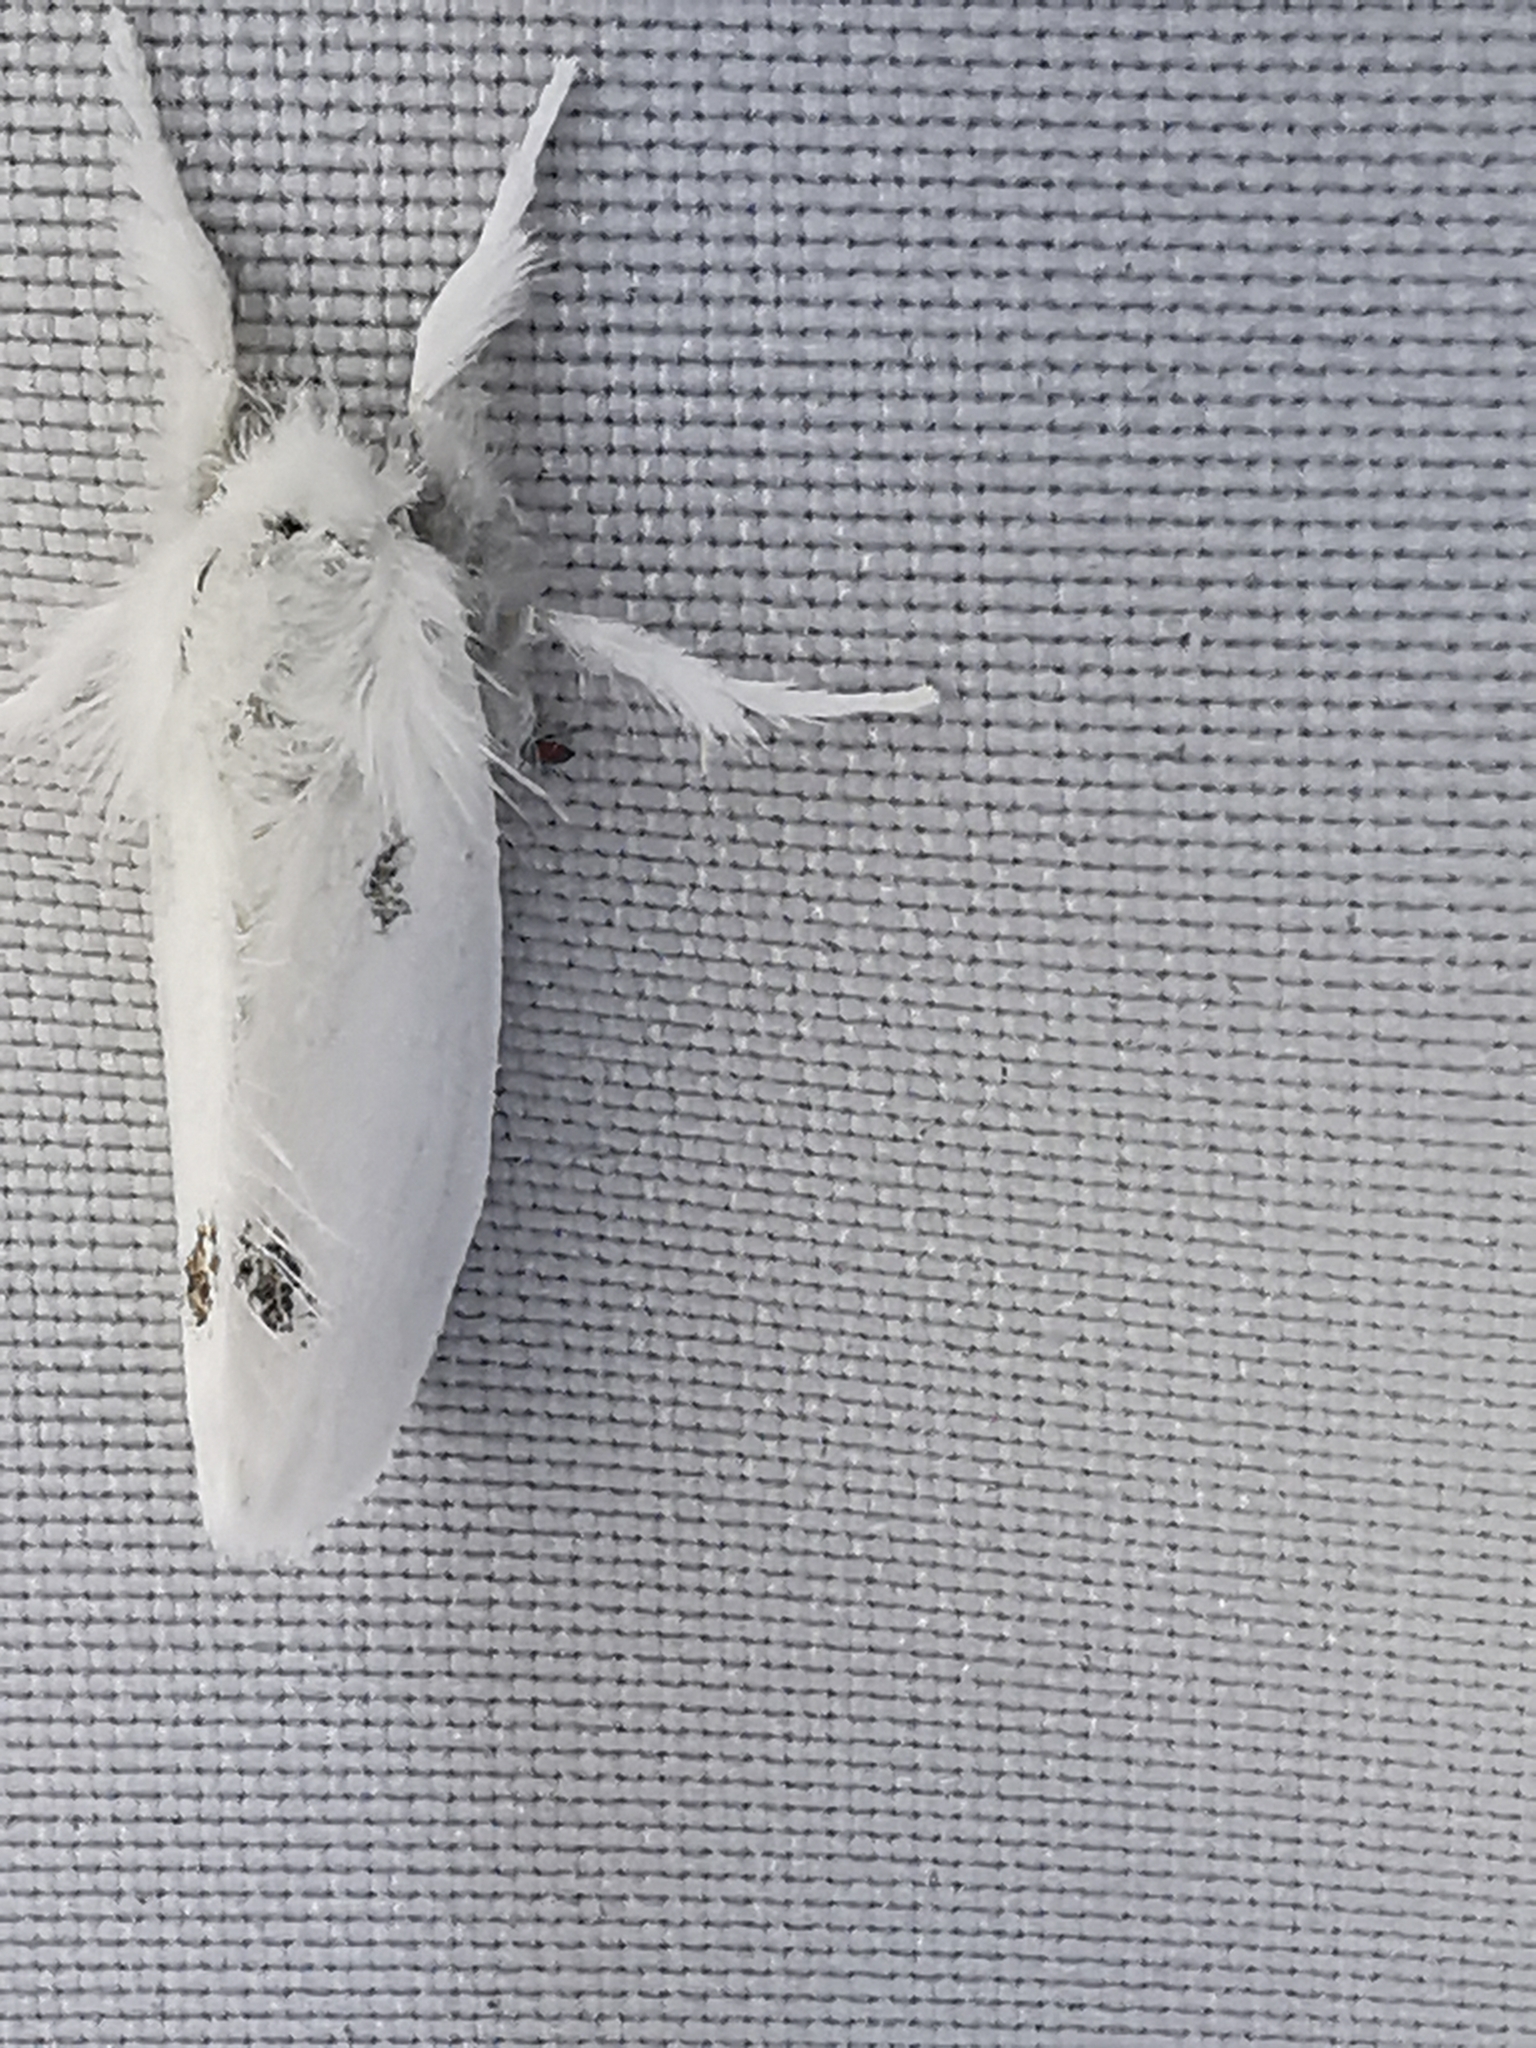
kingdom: Animalia
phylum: Arthropoda
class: Insecta
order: Lepidoptera
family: Erebidae
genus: Sphrageidus
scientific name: Sphrageidus similis
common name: Yellow-tail
